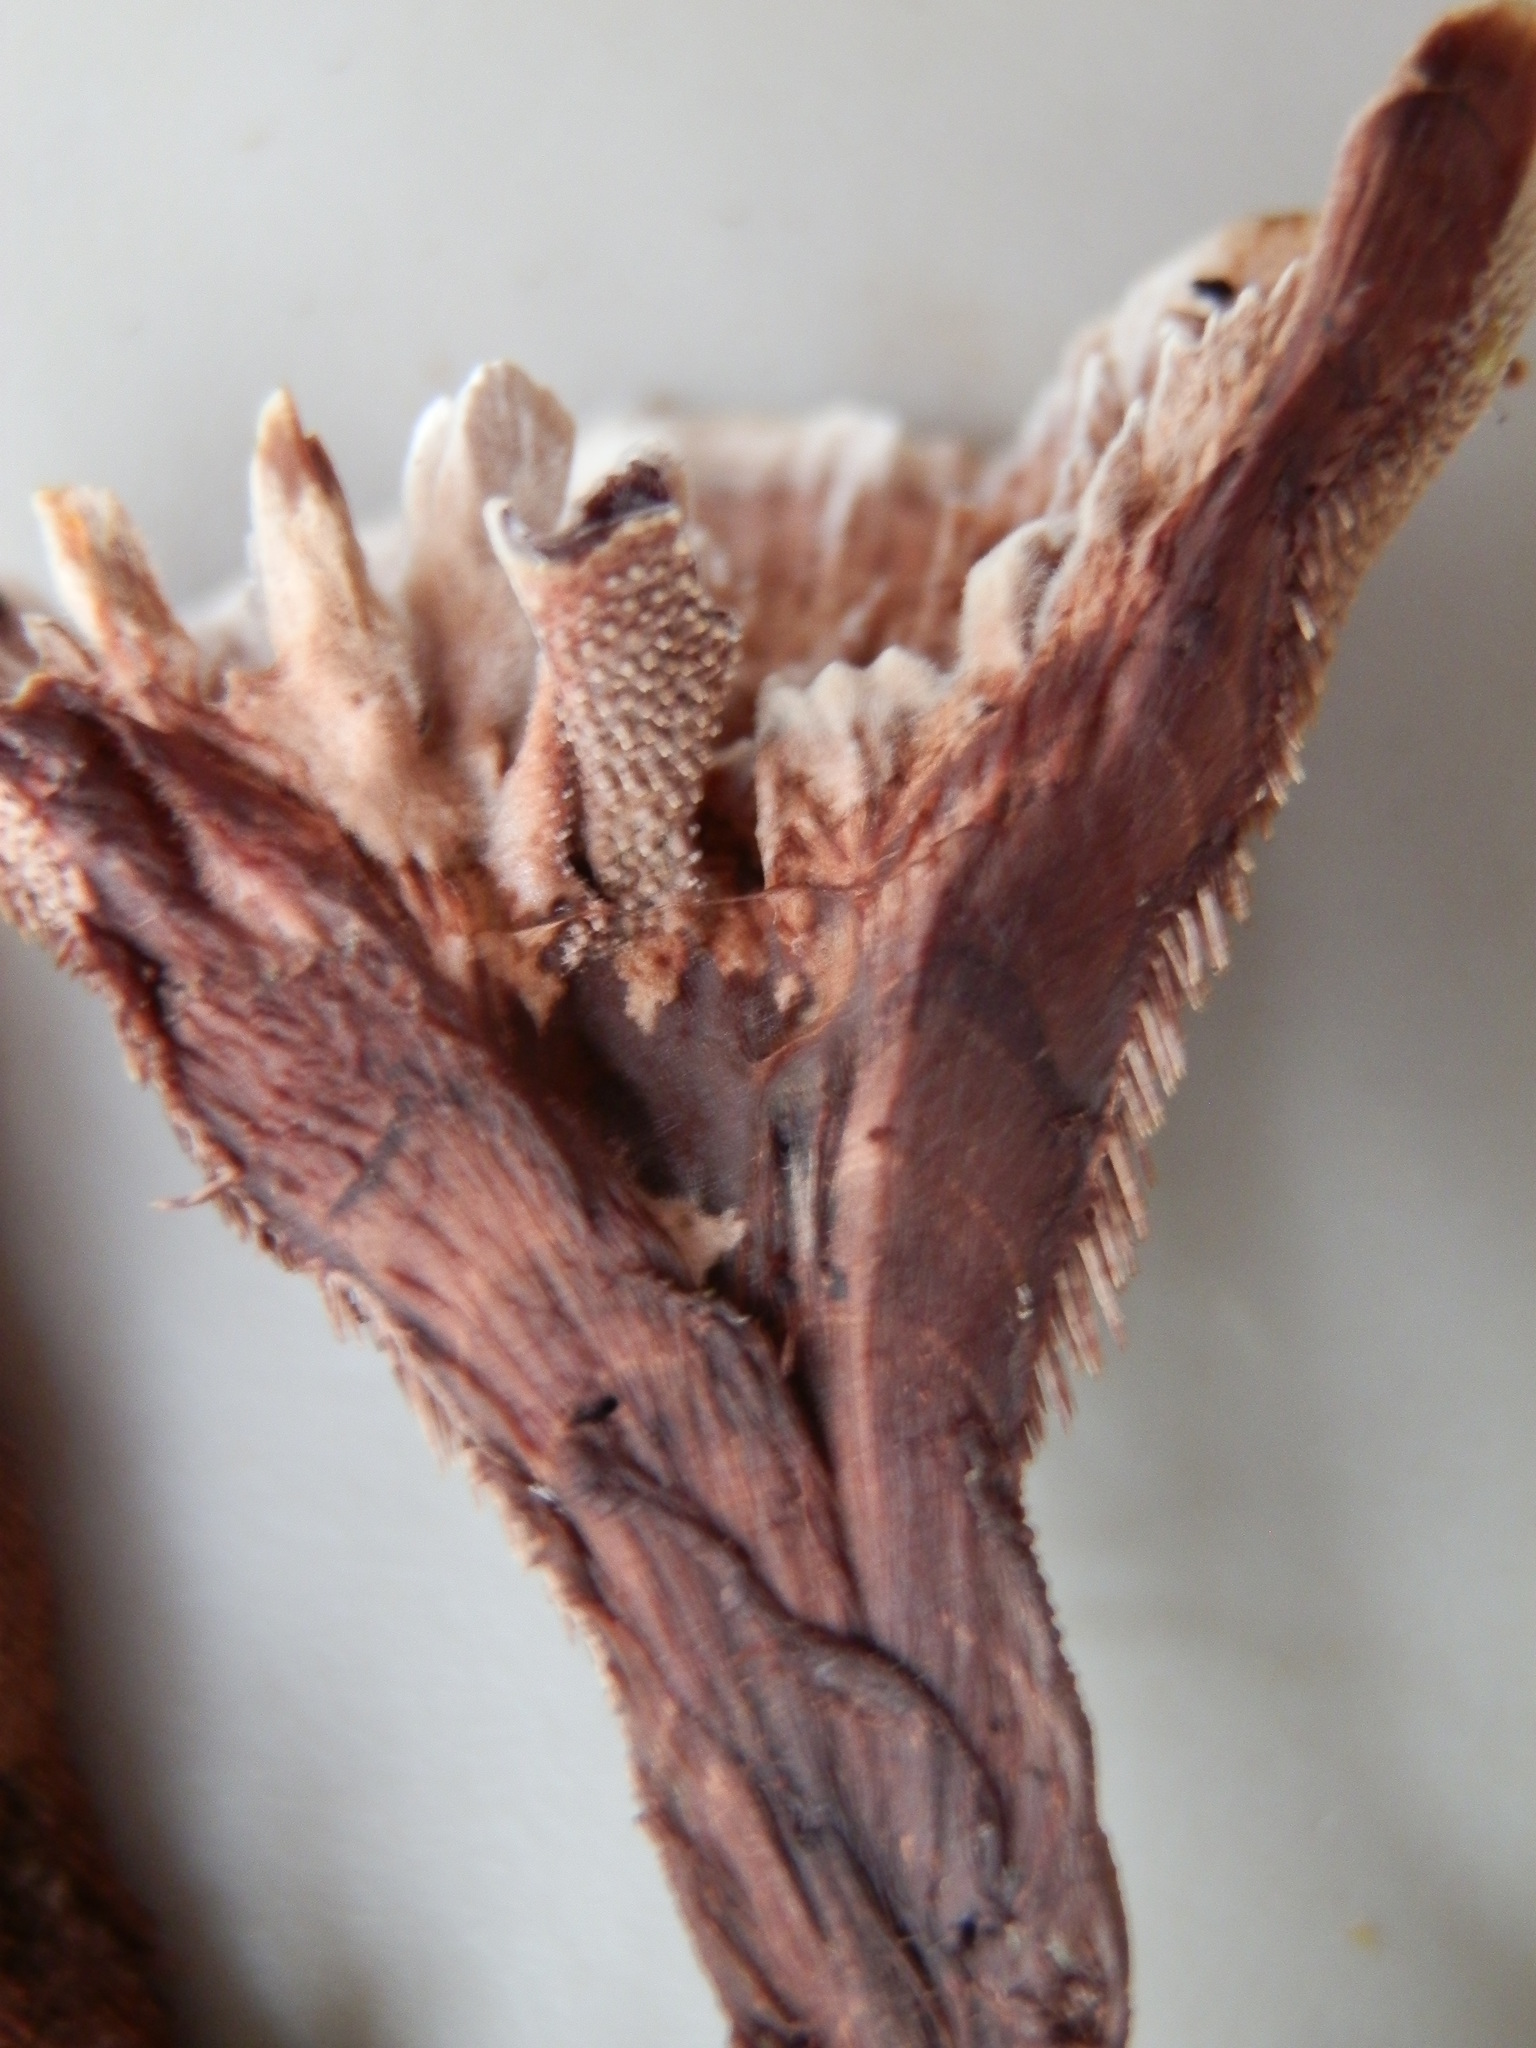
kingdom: Fungi
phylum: Basidiomycota
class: Agaricomycetes
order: Thelephorales
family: Bankeraceae
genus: Hydnellum
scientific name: Hydnellum scrobiculatum
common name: Ridged tooth
